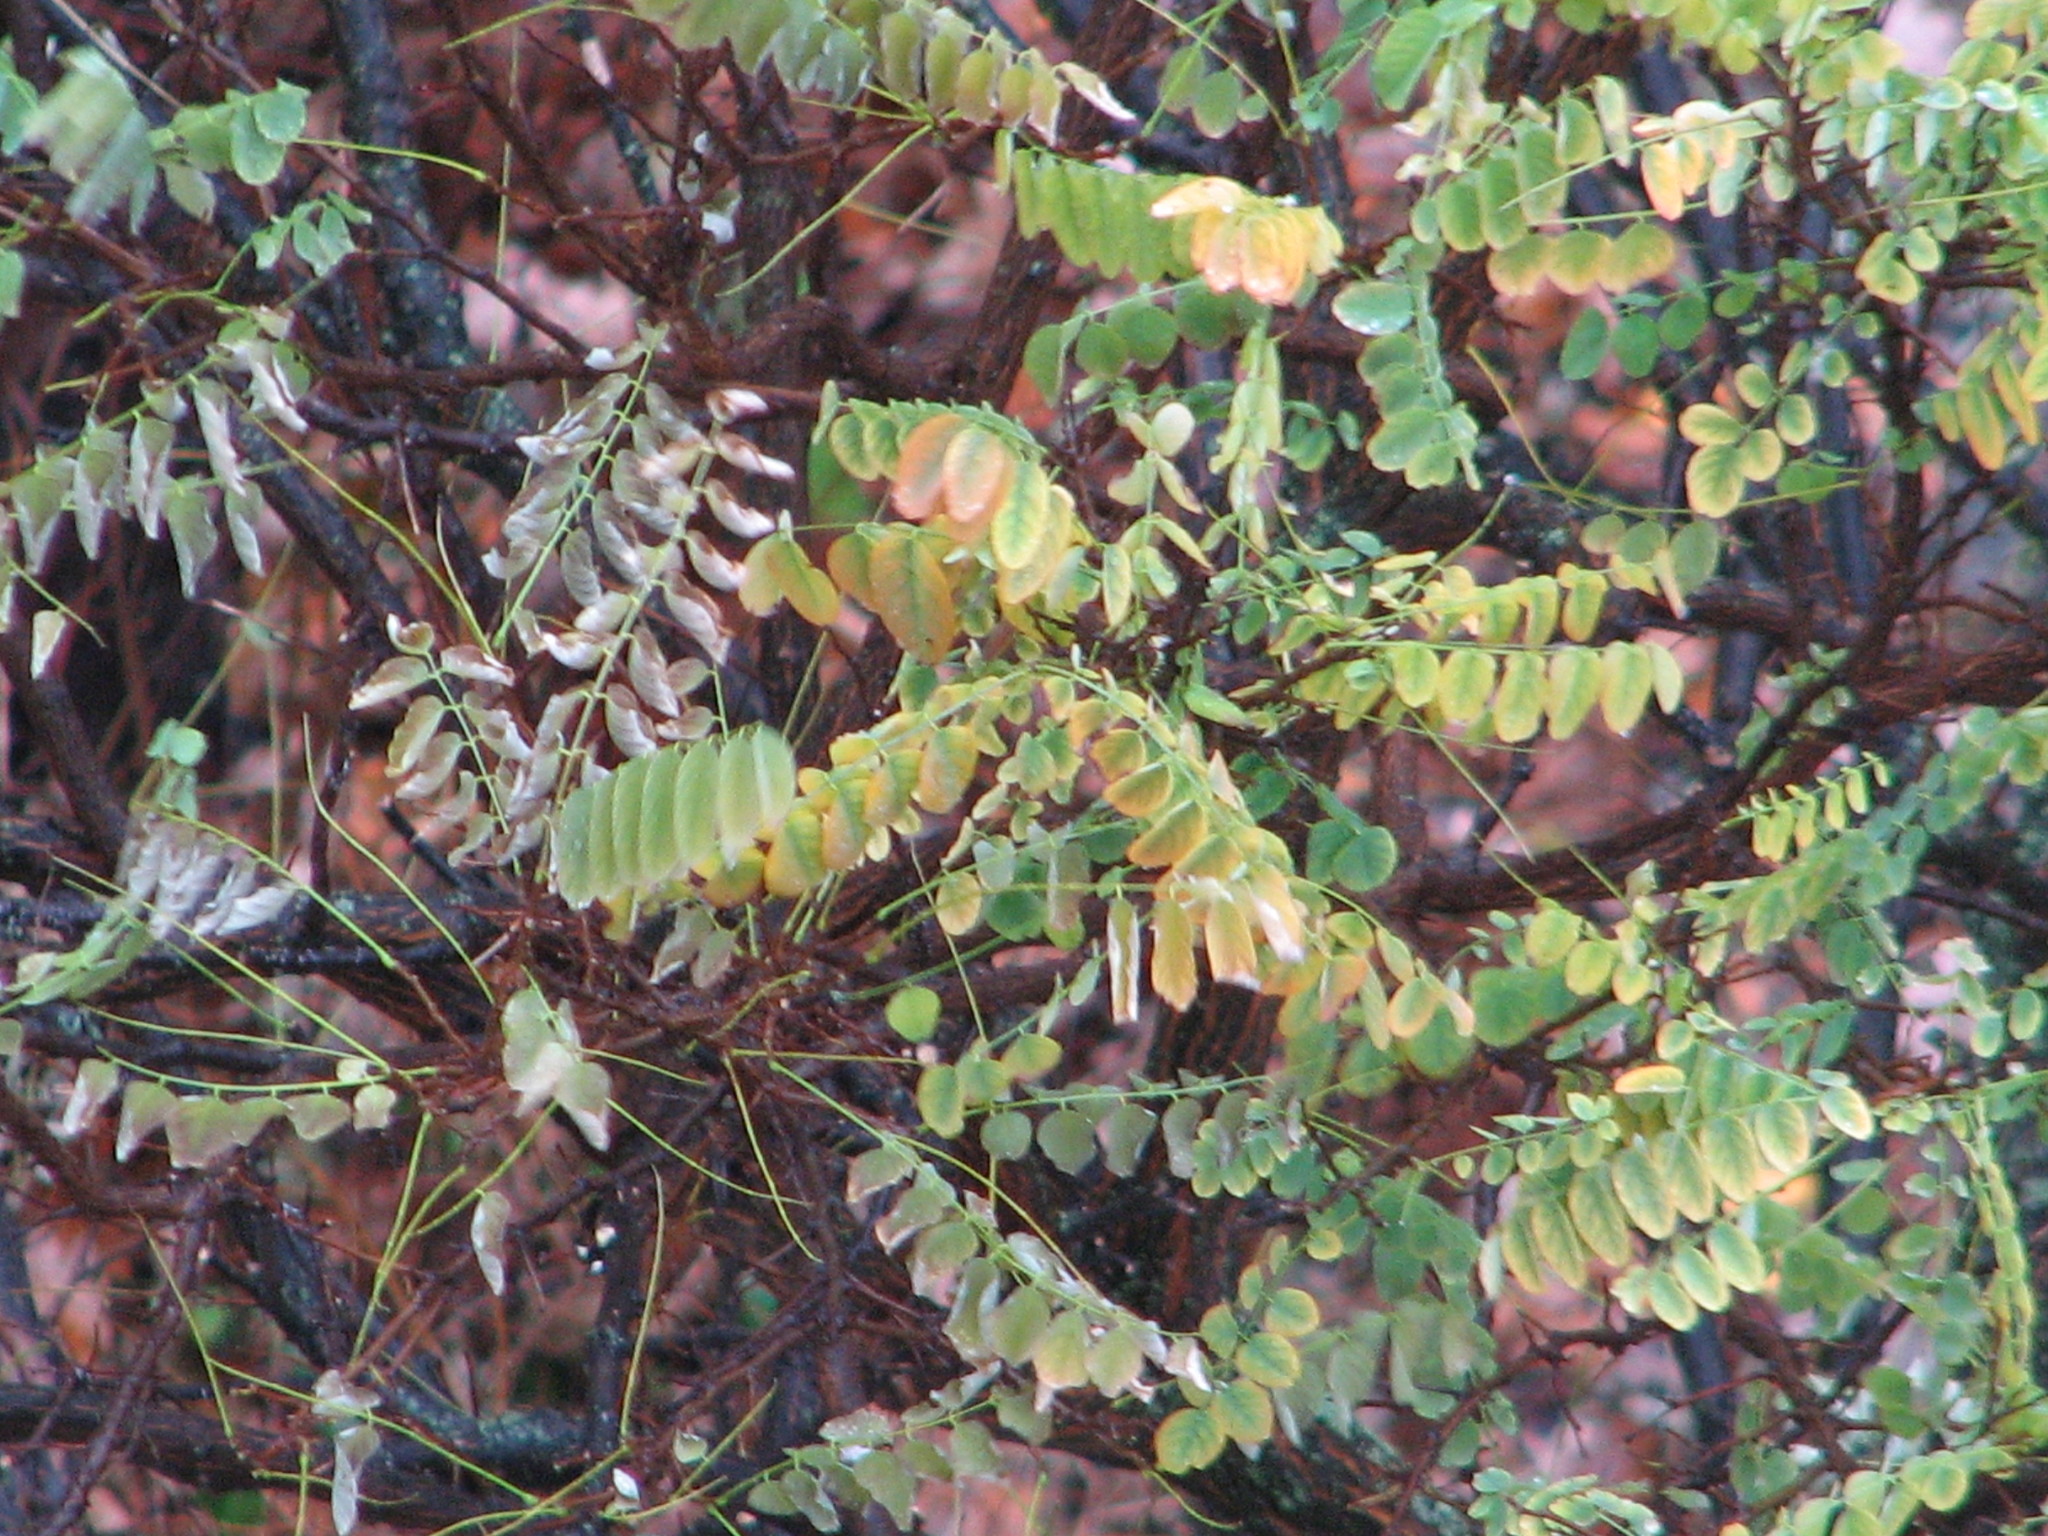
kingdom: Plantae
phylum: Tracheophyta
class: Magnoliopsida
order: Fabales
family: Fabaceae
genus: Robinia
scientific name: Robinia pseudoacacia
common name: Black locust
